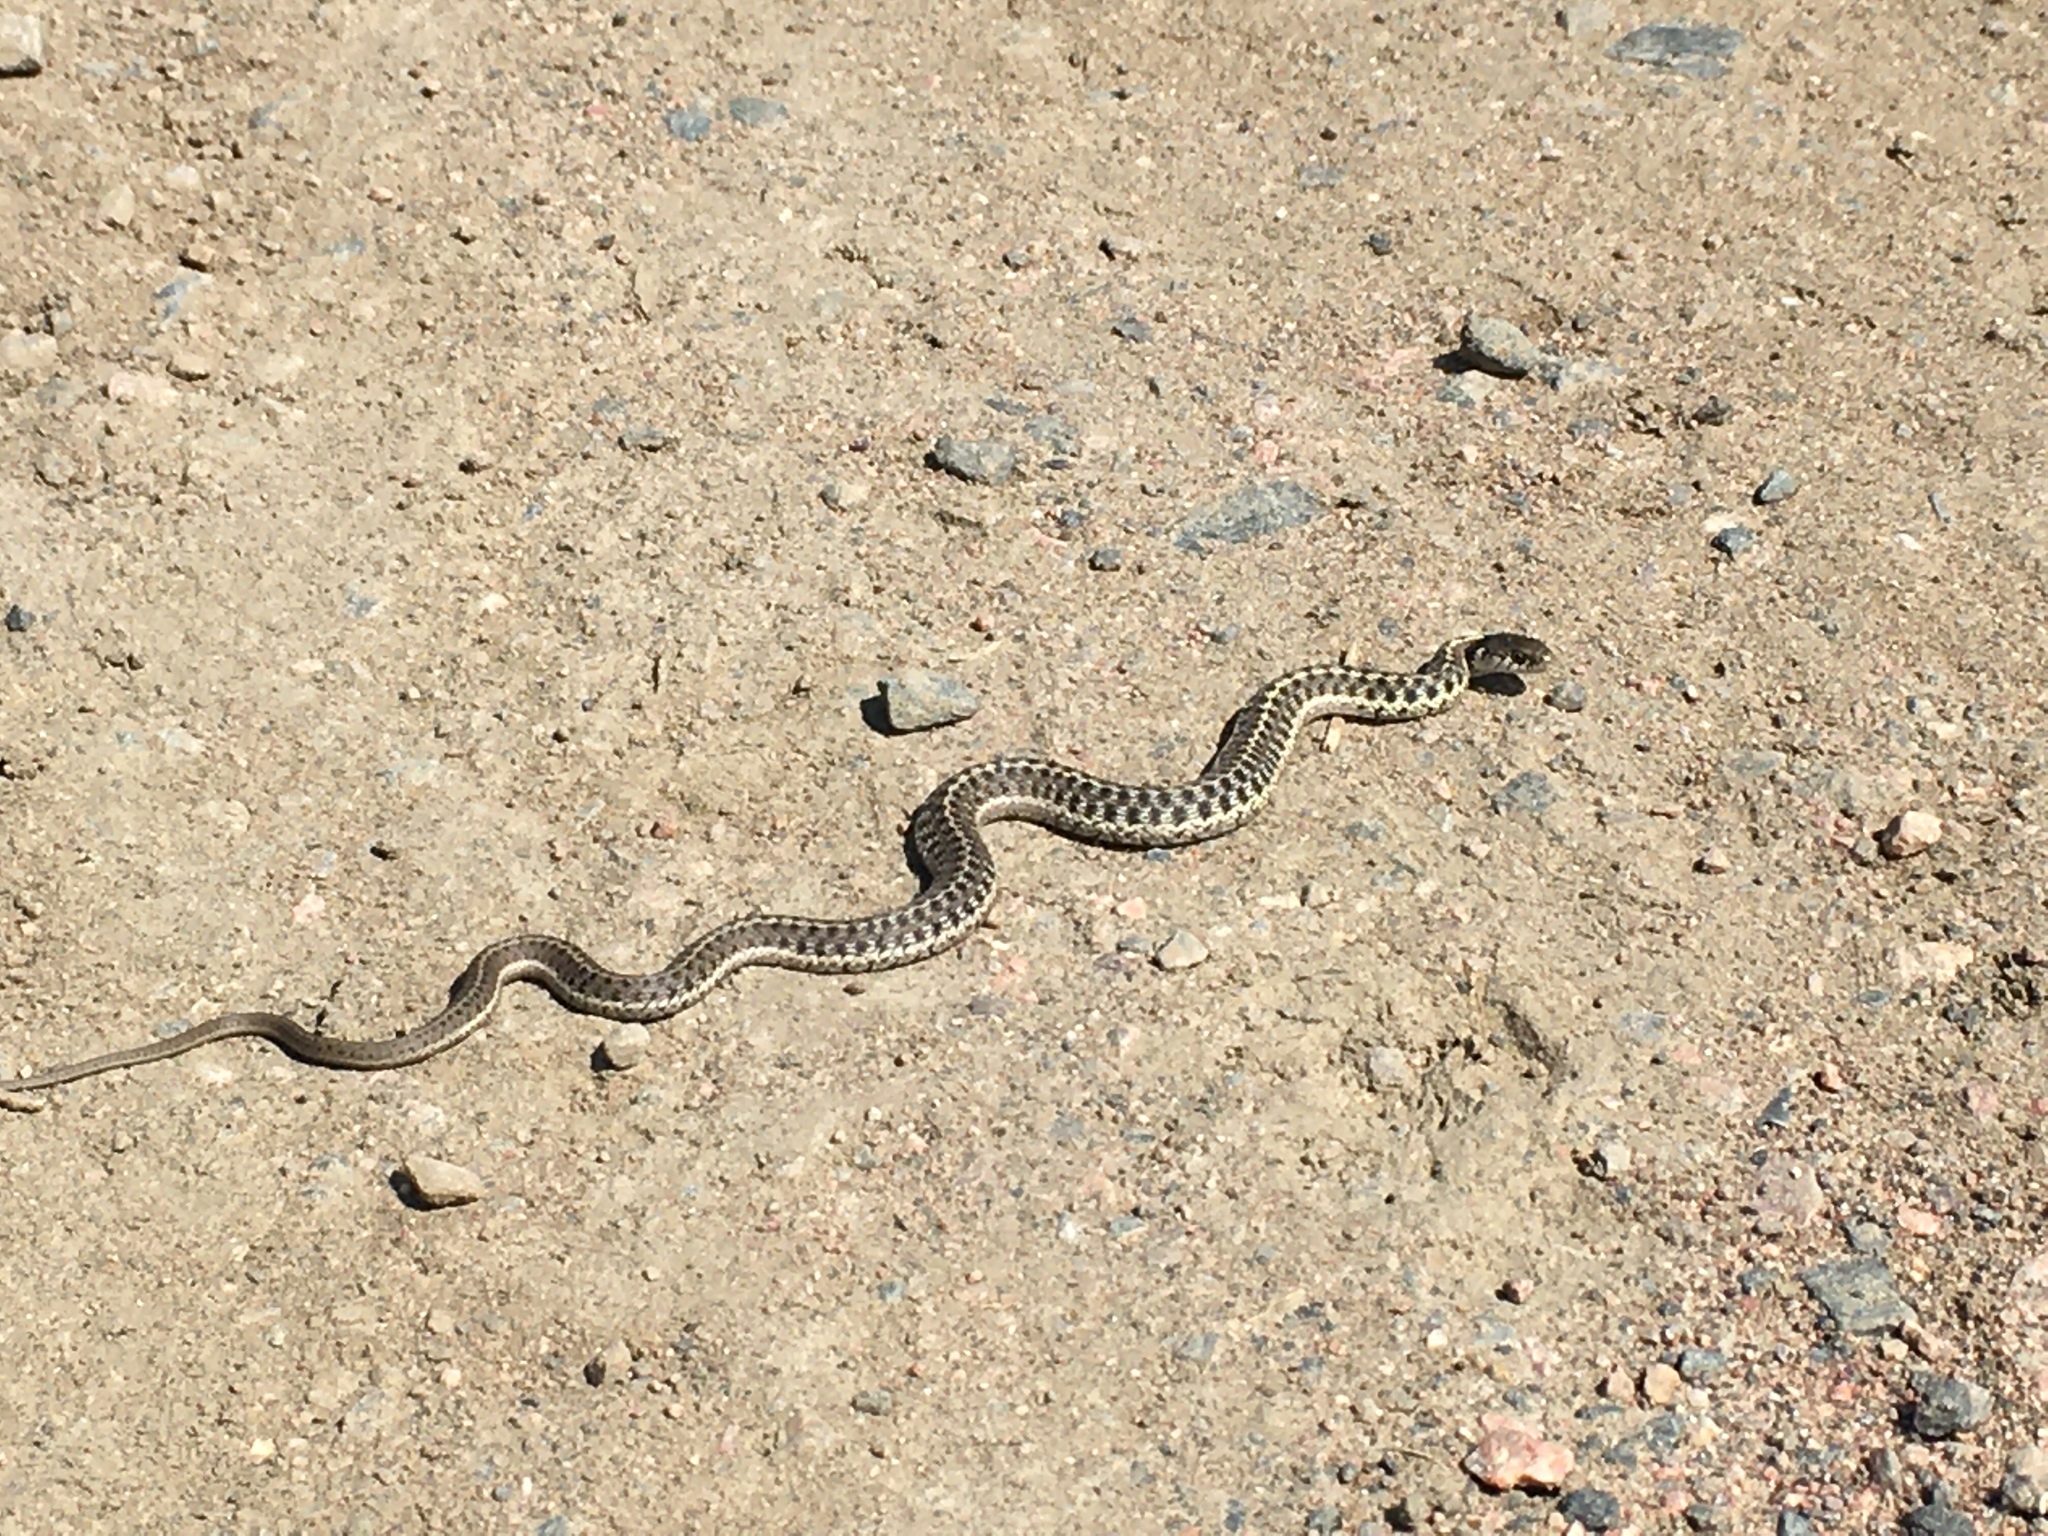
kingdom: Animalia
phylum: Chordata
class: Squamata
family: Colubridae
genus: Thamnophis
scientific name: Thamnophis elegans
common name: Western terrestrial garter snake
